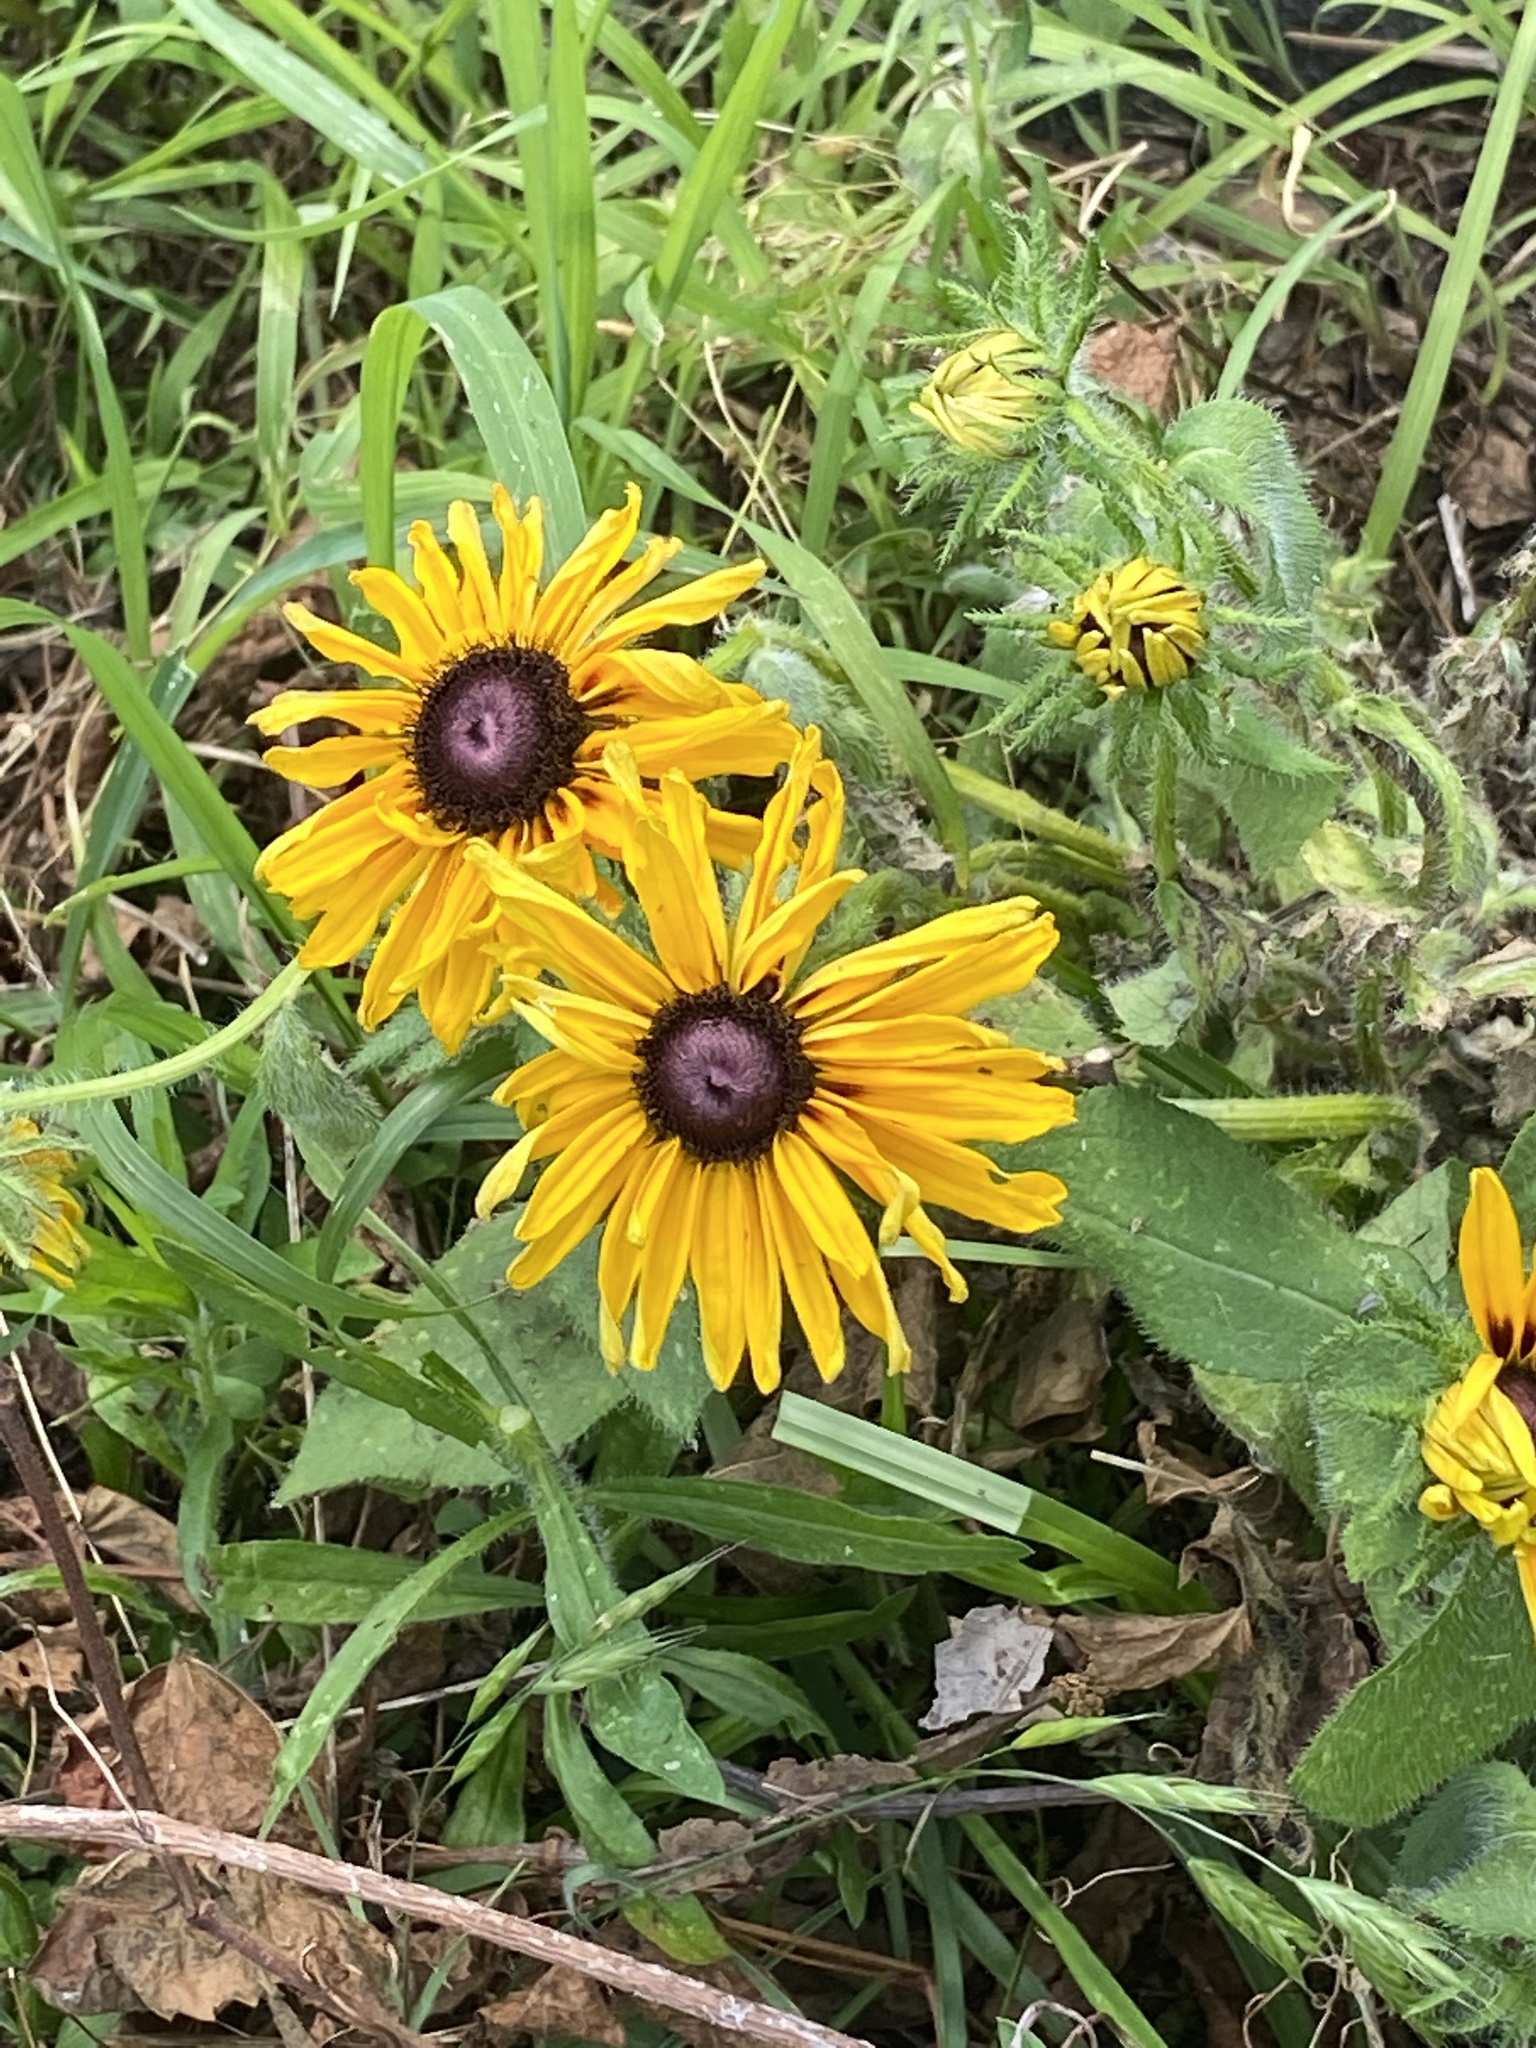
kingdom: Plantae
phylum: Tracheophyta
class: Magnoliopsida
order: Asterales
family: Asteraceae
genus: Rudbeckia
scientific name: Rudbeckia hirta
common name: Black-eyed-susan
